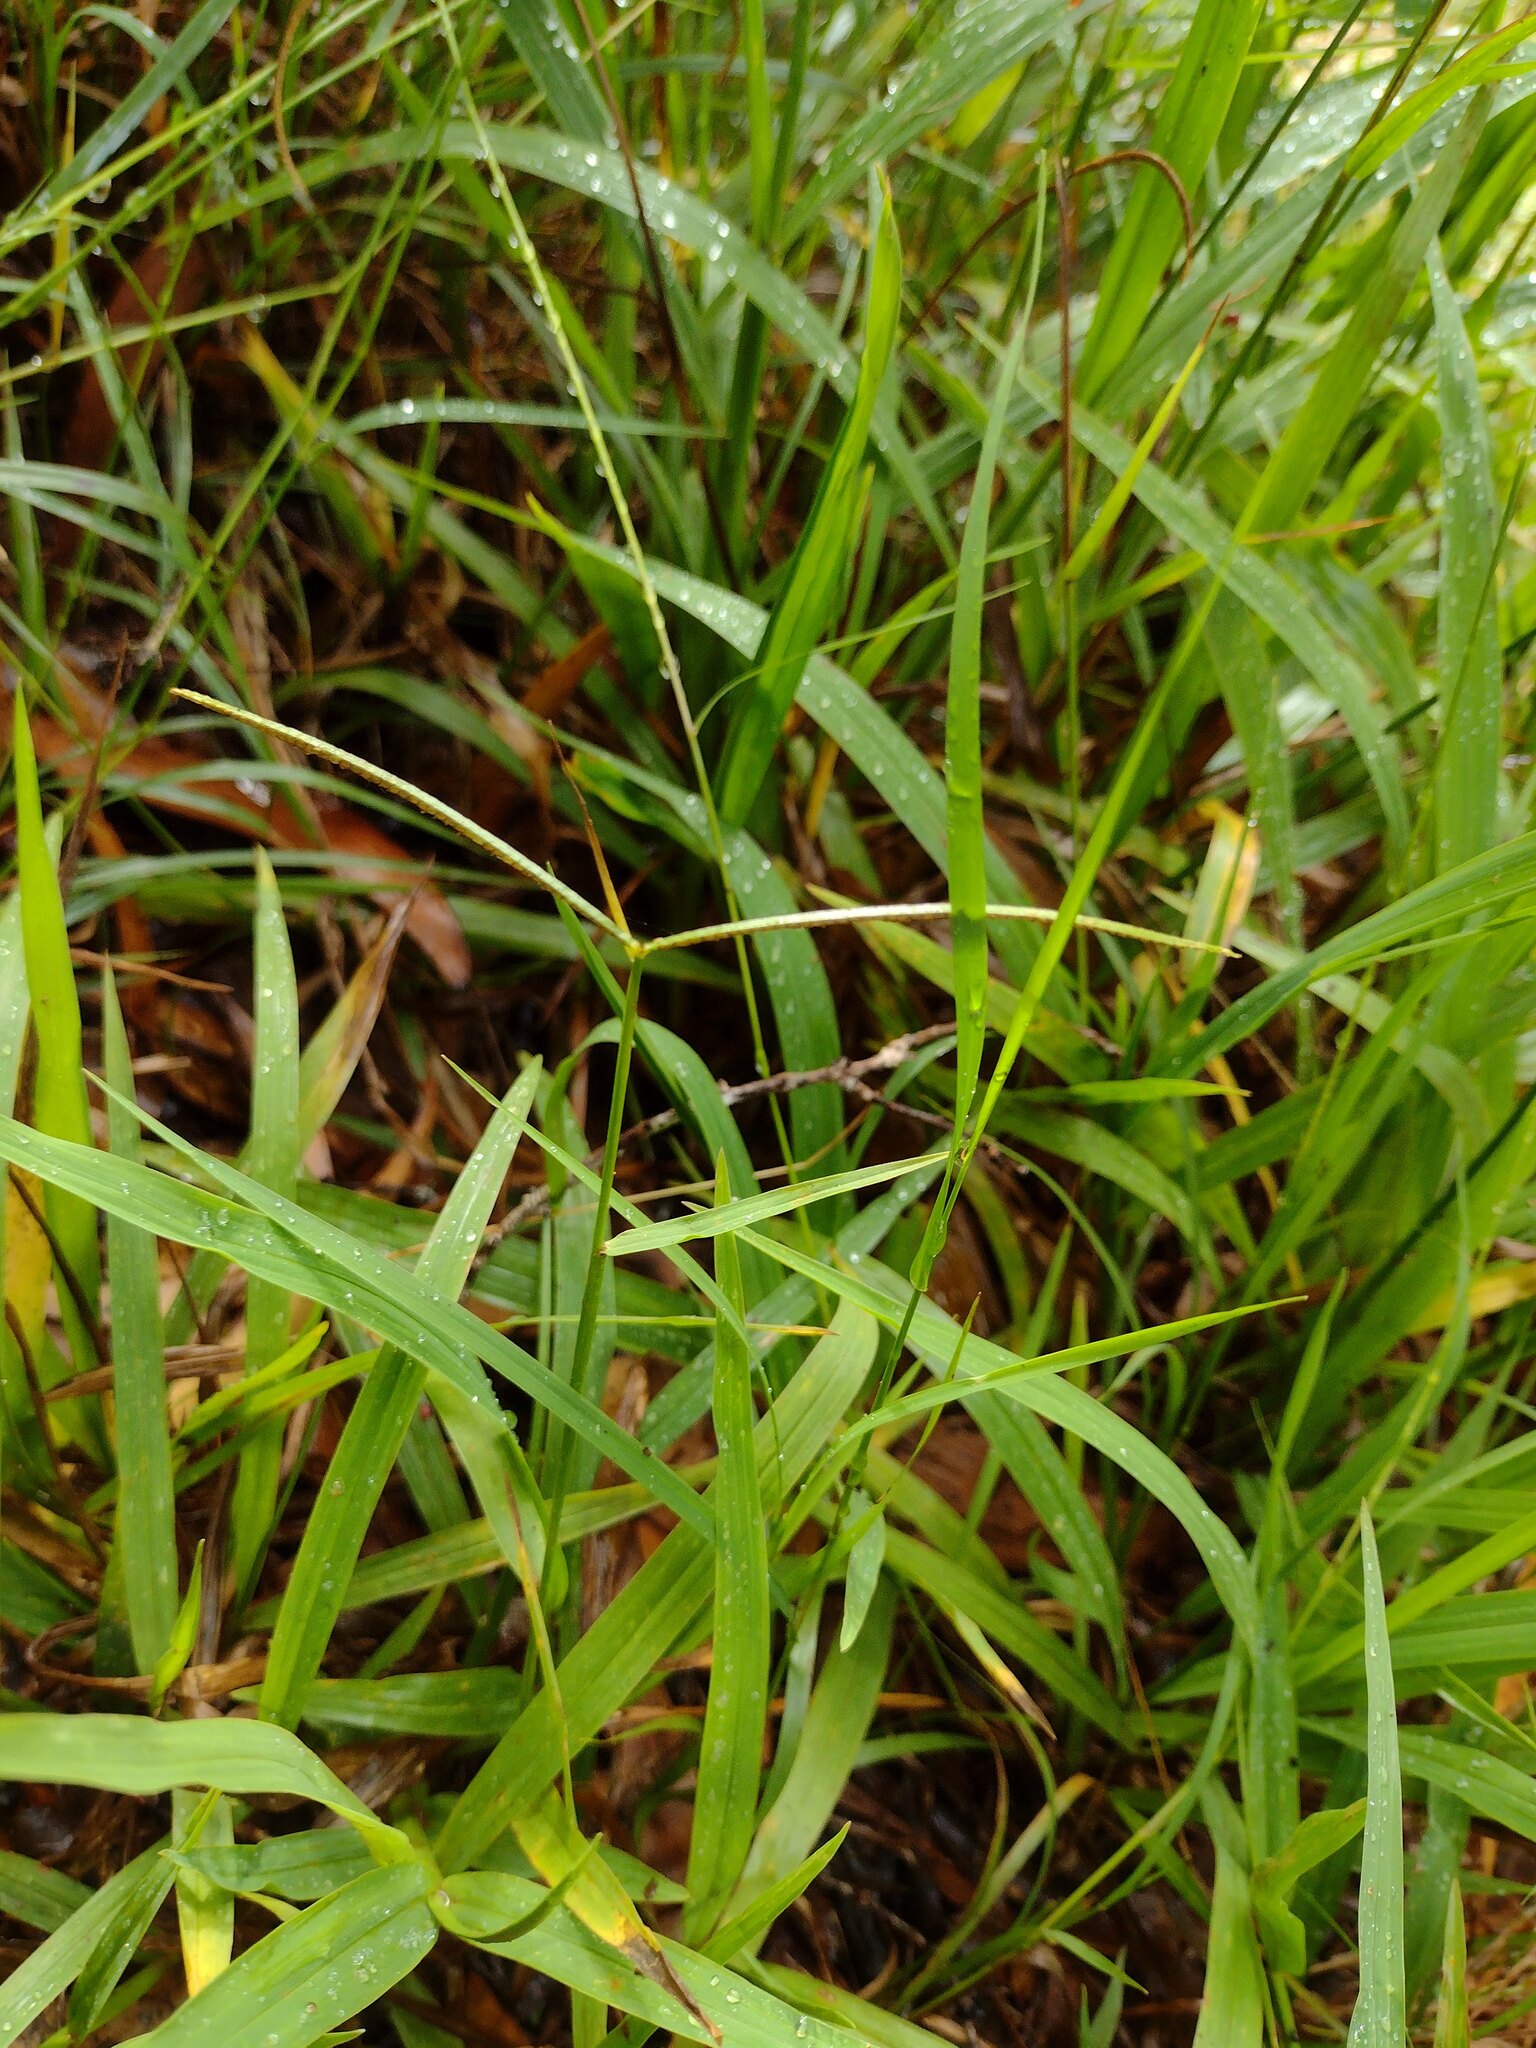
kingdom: Plantae
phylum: Tracheophyta
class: Liliopsida
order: Poales
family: Poaceae
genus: Paspalum
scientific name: Paspalum conjugatum
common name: Hilograss
